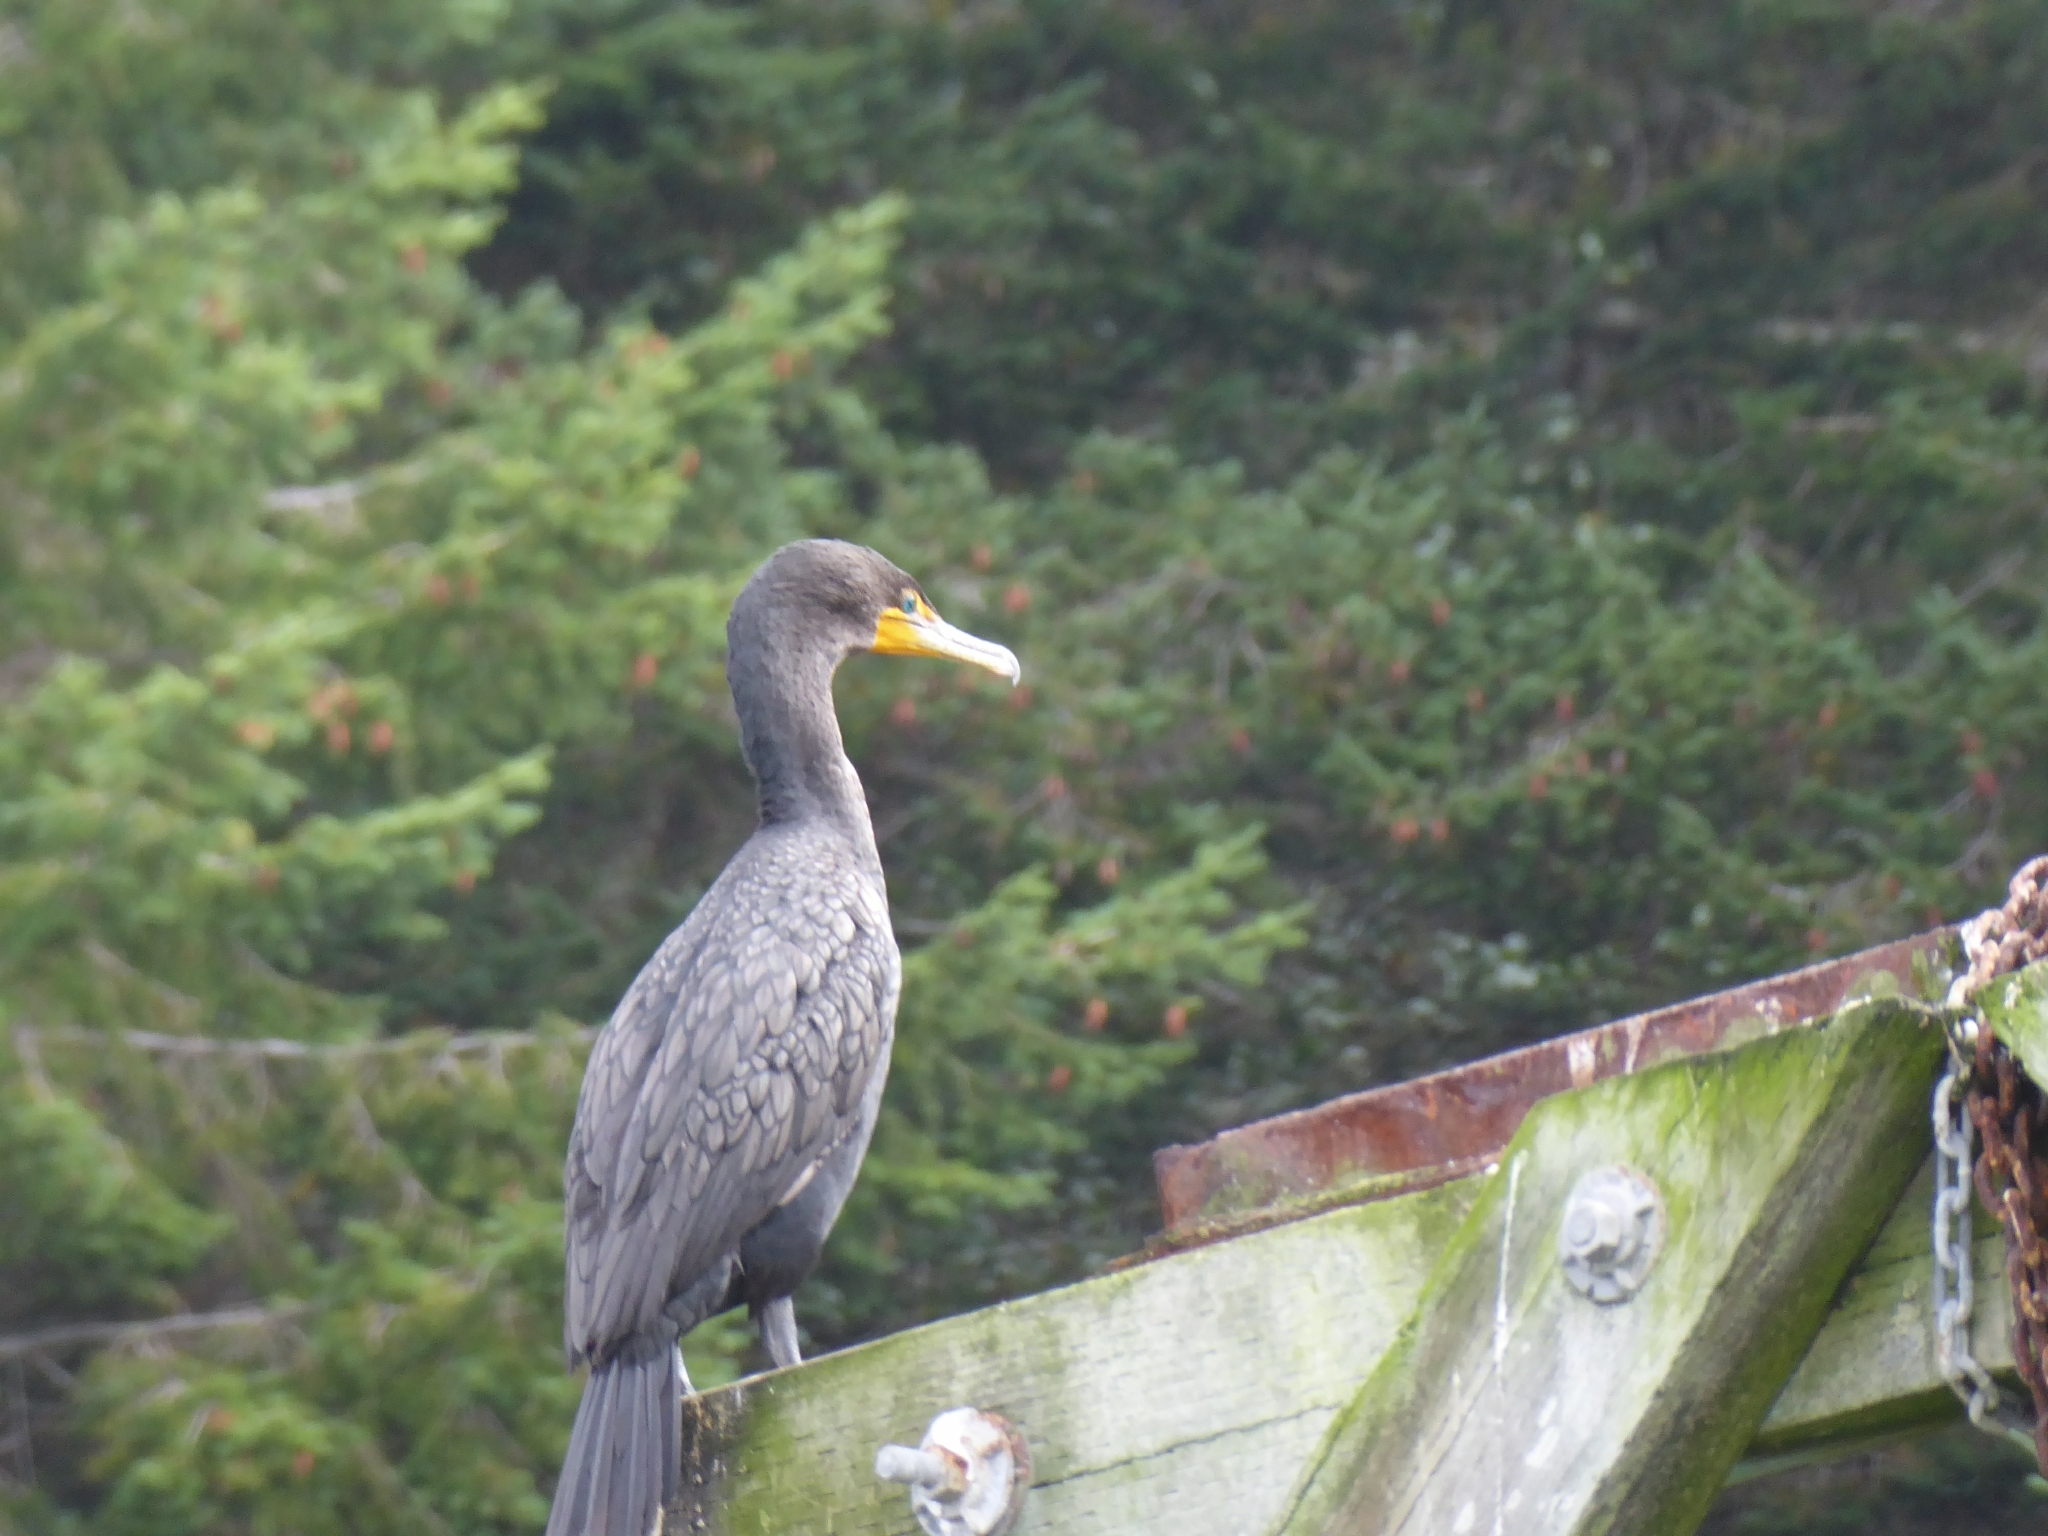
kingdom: Animalia
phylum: Chordata
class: Aves
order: Suliformes
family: Phalacrocoracidae
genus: Phalacrocorax
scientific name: Phalacrocorax auritus
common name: Double-crested cormorant
